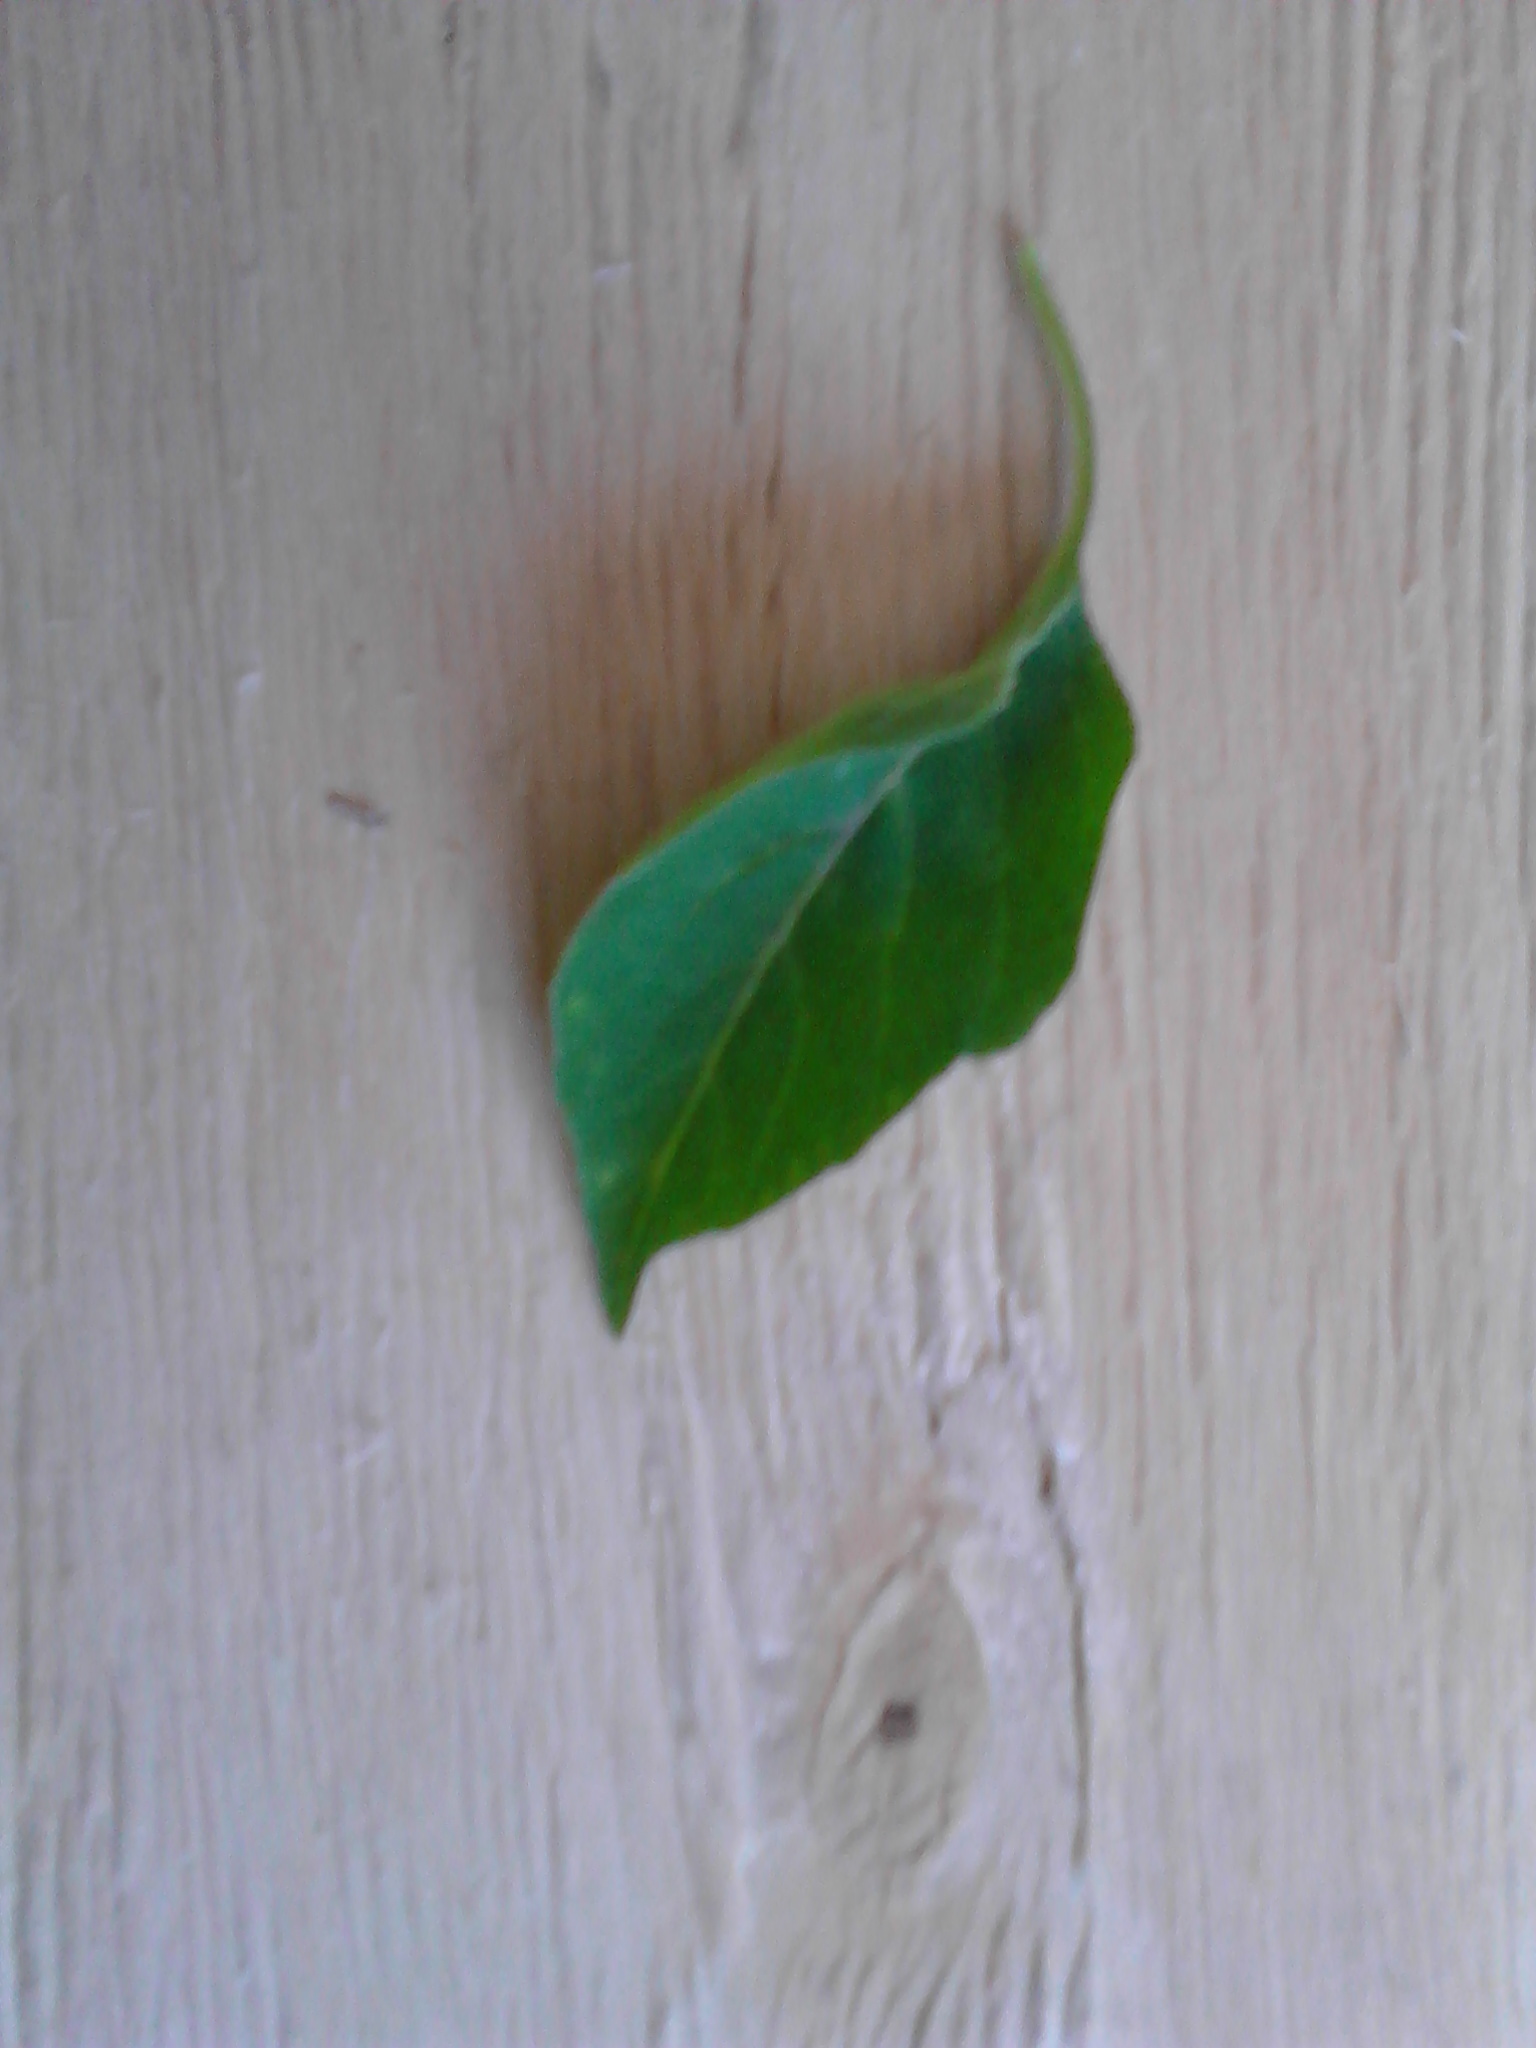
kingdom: Plantae
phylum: Tracheophyta
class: Magnoliopsida
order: Solanales
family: Solanaceae
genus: Solanum
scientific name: Solanum chenopodioides
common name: Tall nightshade
